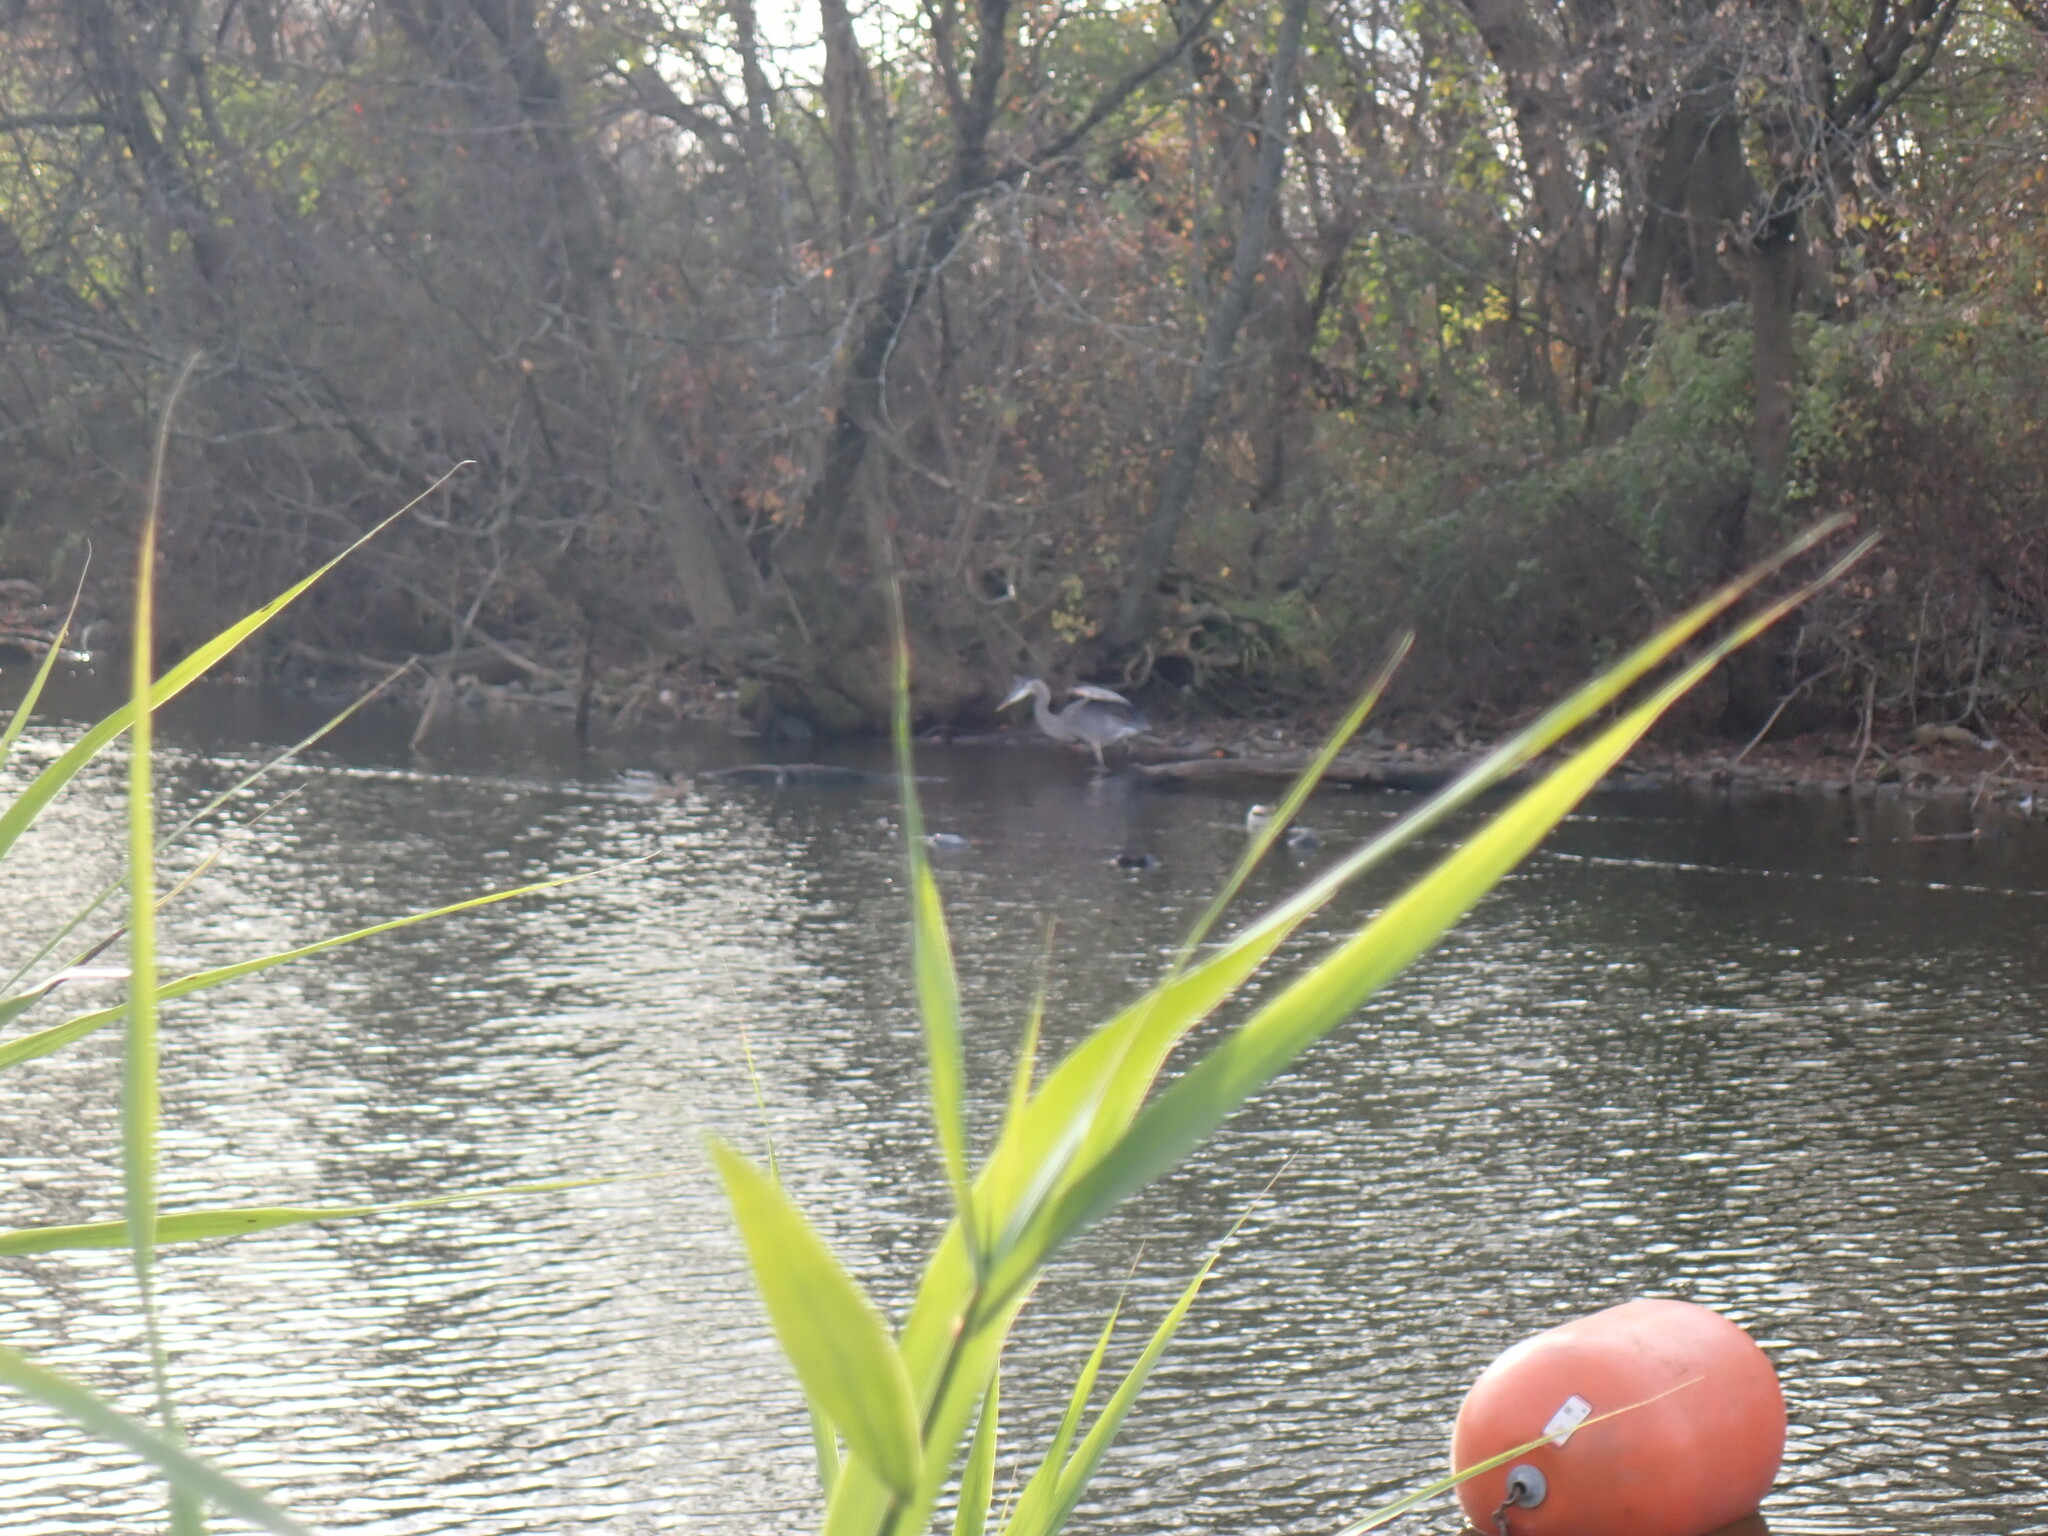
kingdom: Animalia
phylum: Chordata
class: Aves
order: Pelecaniformes
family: Ardeidae
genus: Ardea
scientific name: Ardea herodias
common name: Great blue heron
